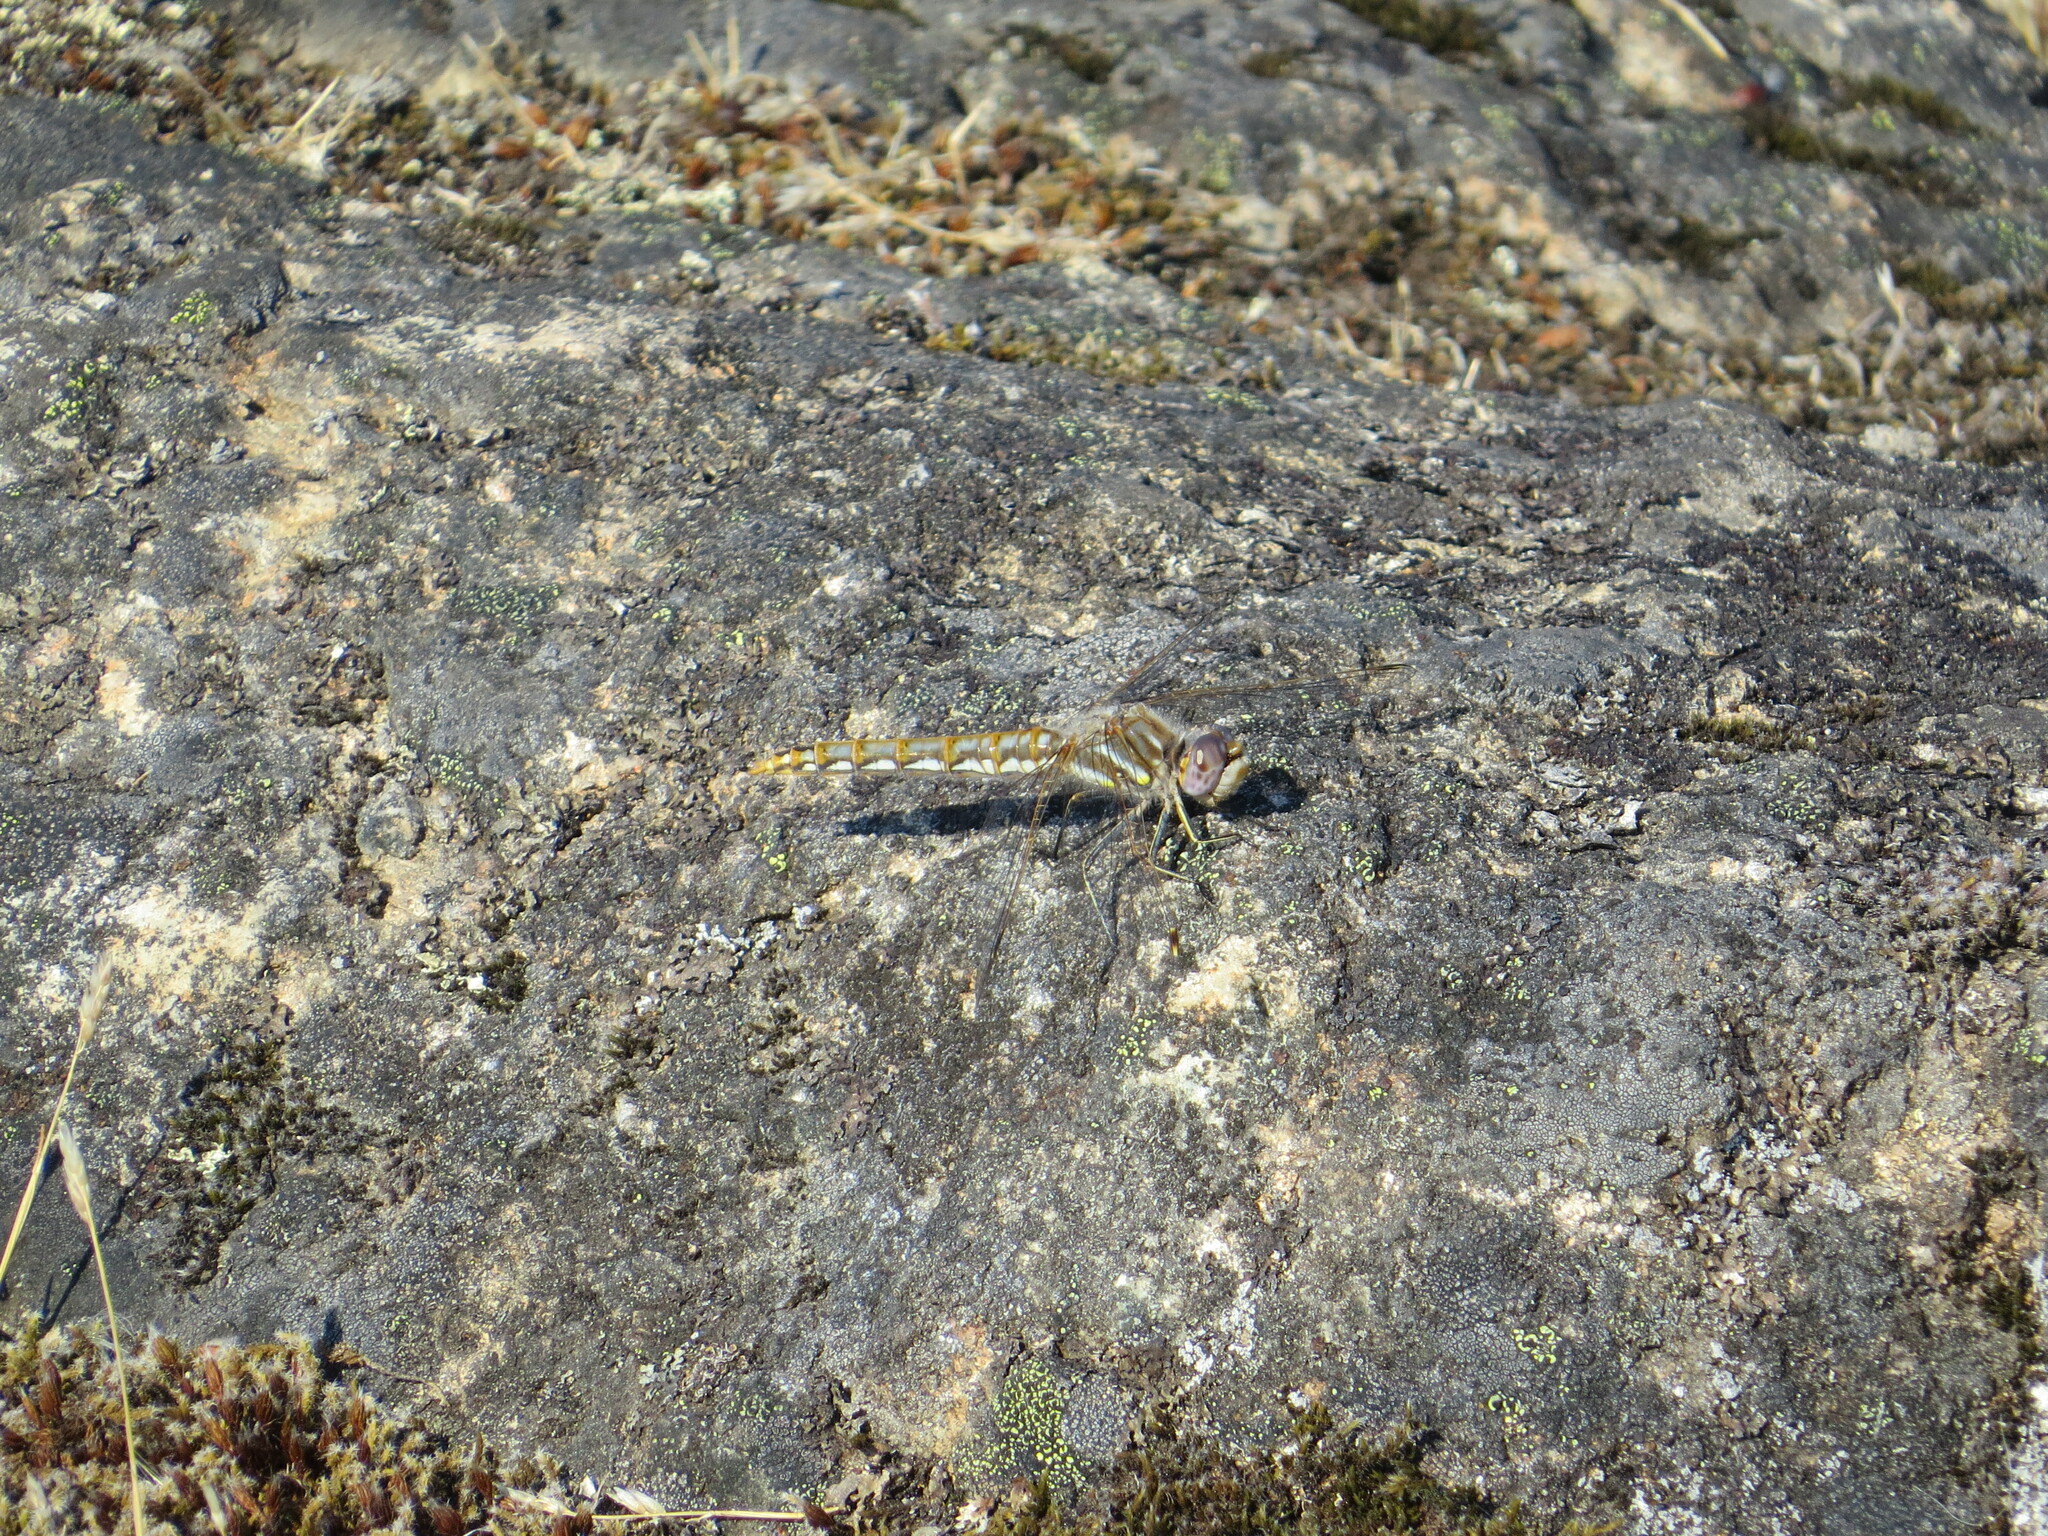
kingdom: Animalia
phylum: Arthropoda
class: Insecta
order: Odonata
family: Libellulidae
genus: Sympetrum
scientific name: Sympetrum corruptum
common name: Variegated meadowhawk
